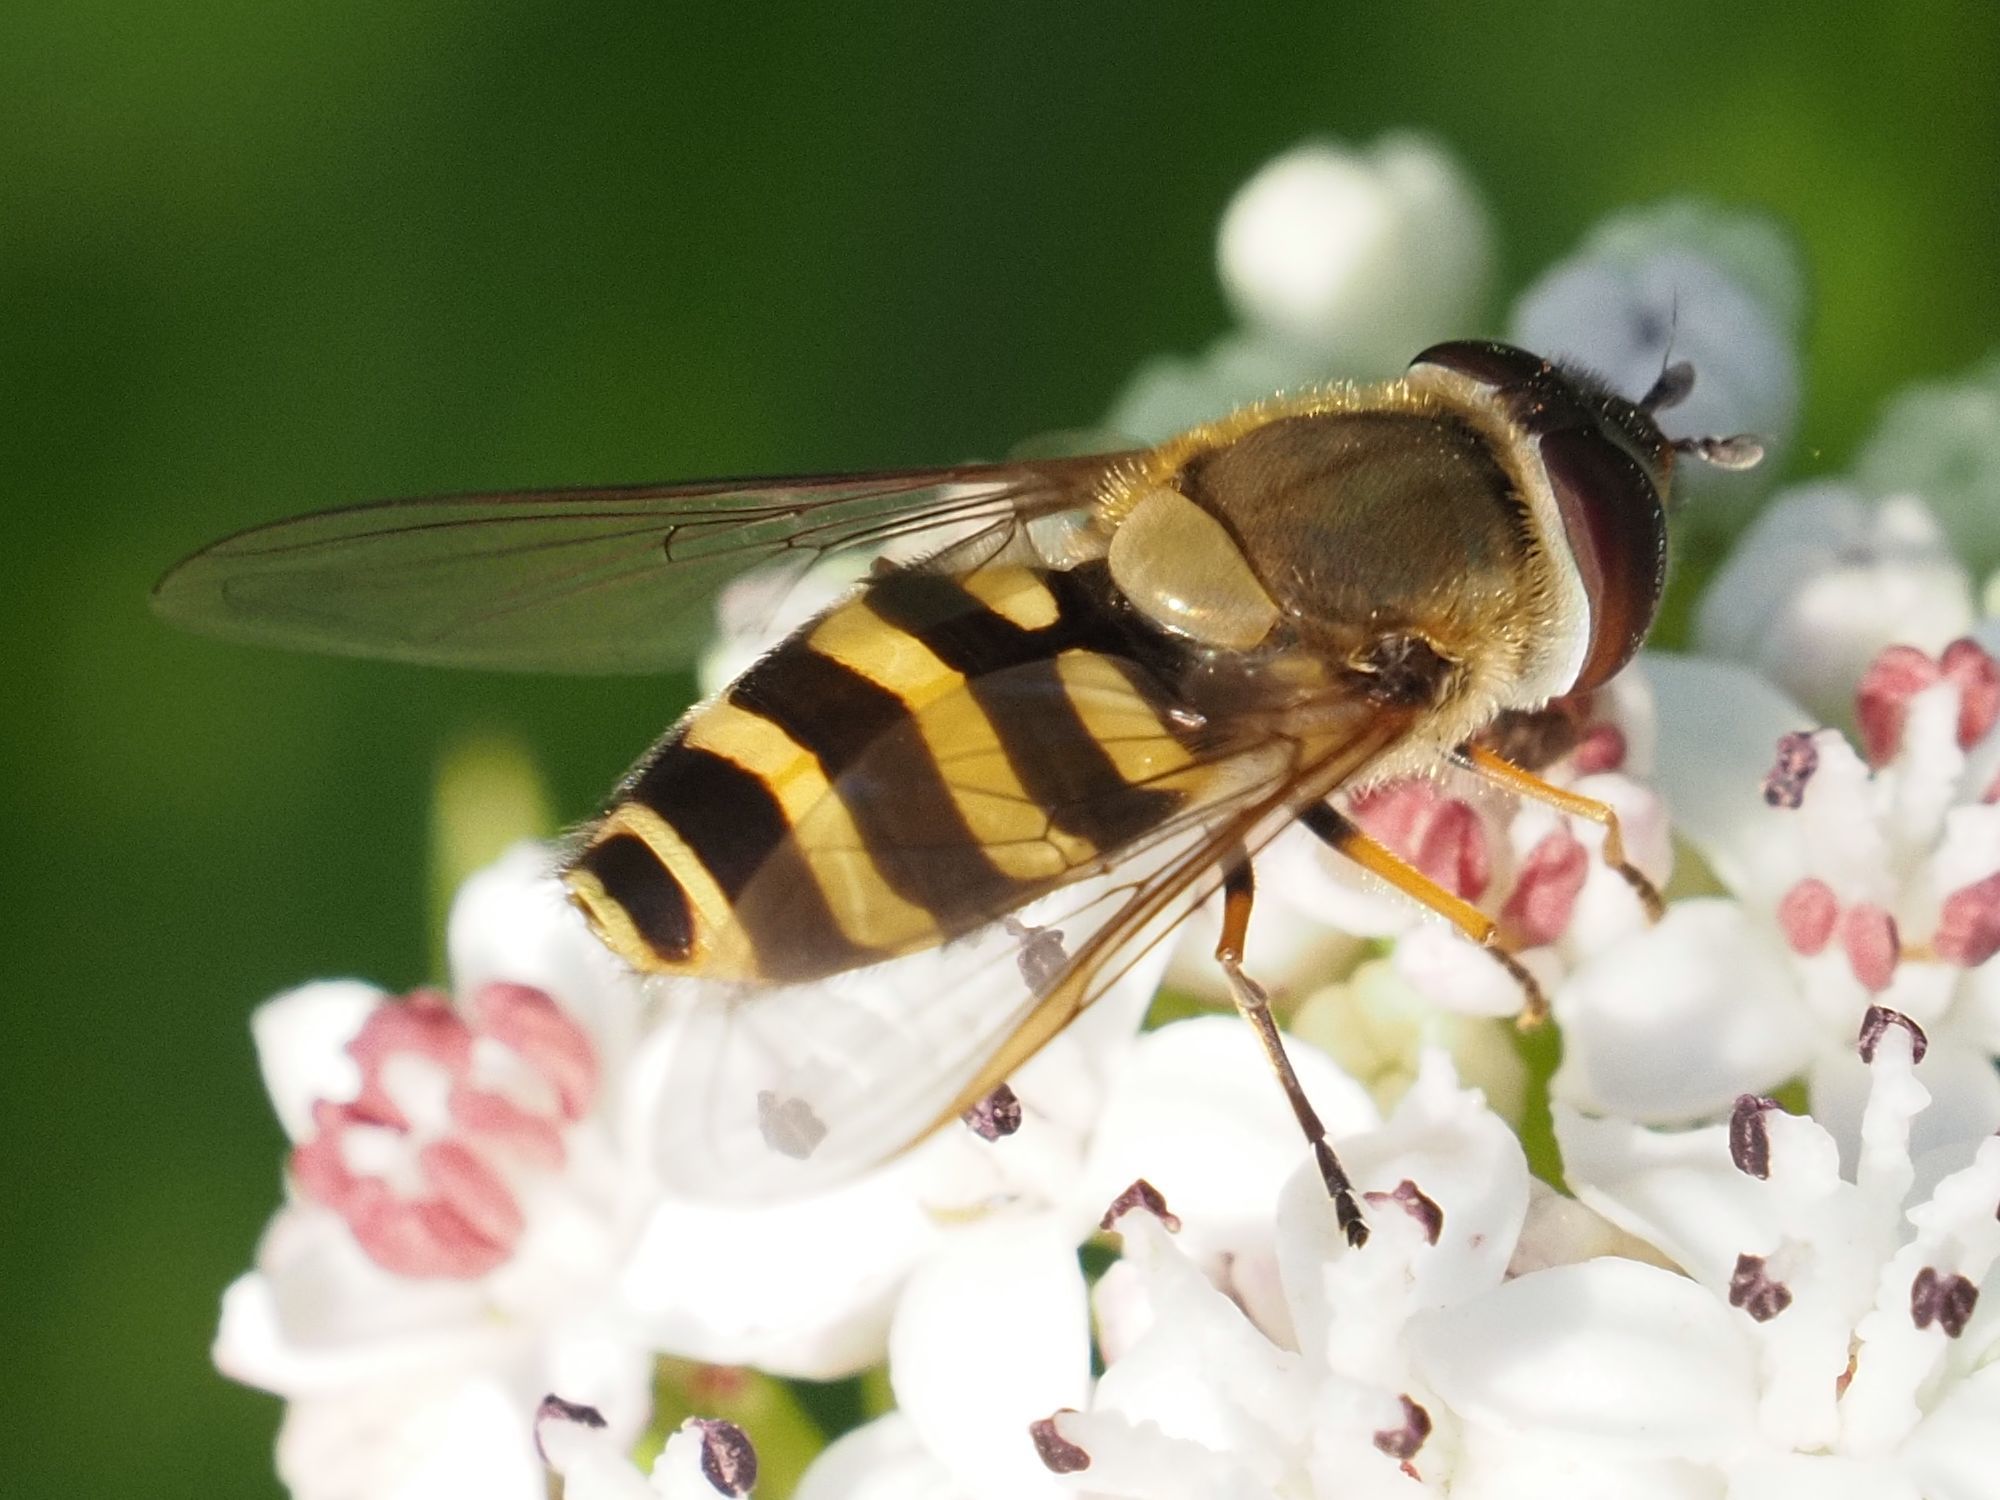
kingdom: Animalia
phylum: Arthropoda
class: Insecta
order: Diptera
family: Syrphidae
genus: Syrphus
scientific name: Syrphus torvus
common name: Hairy-eyed flower fly
